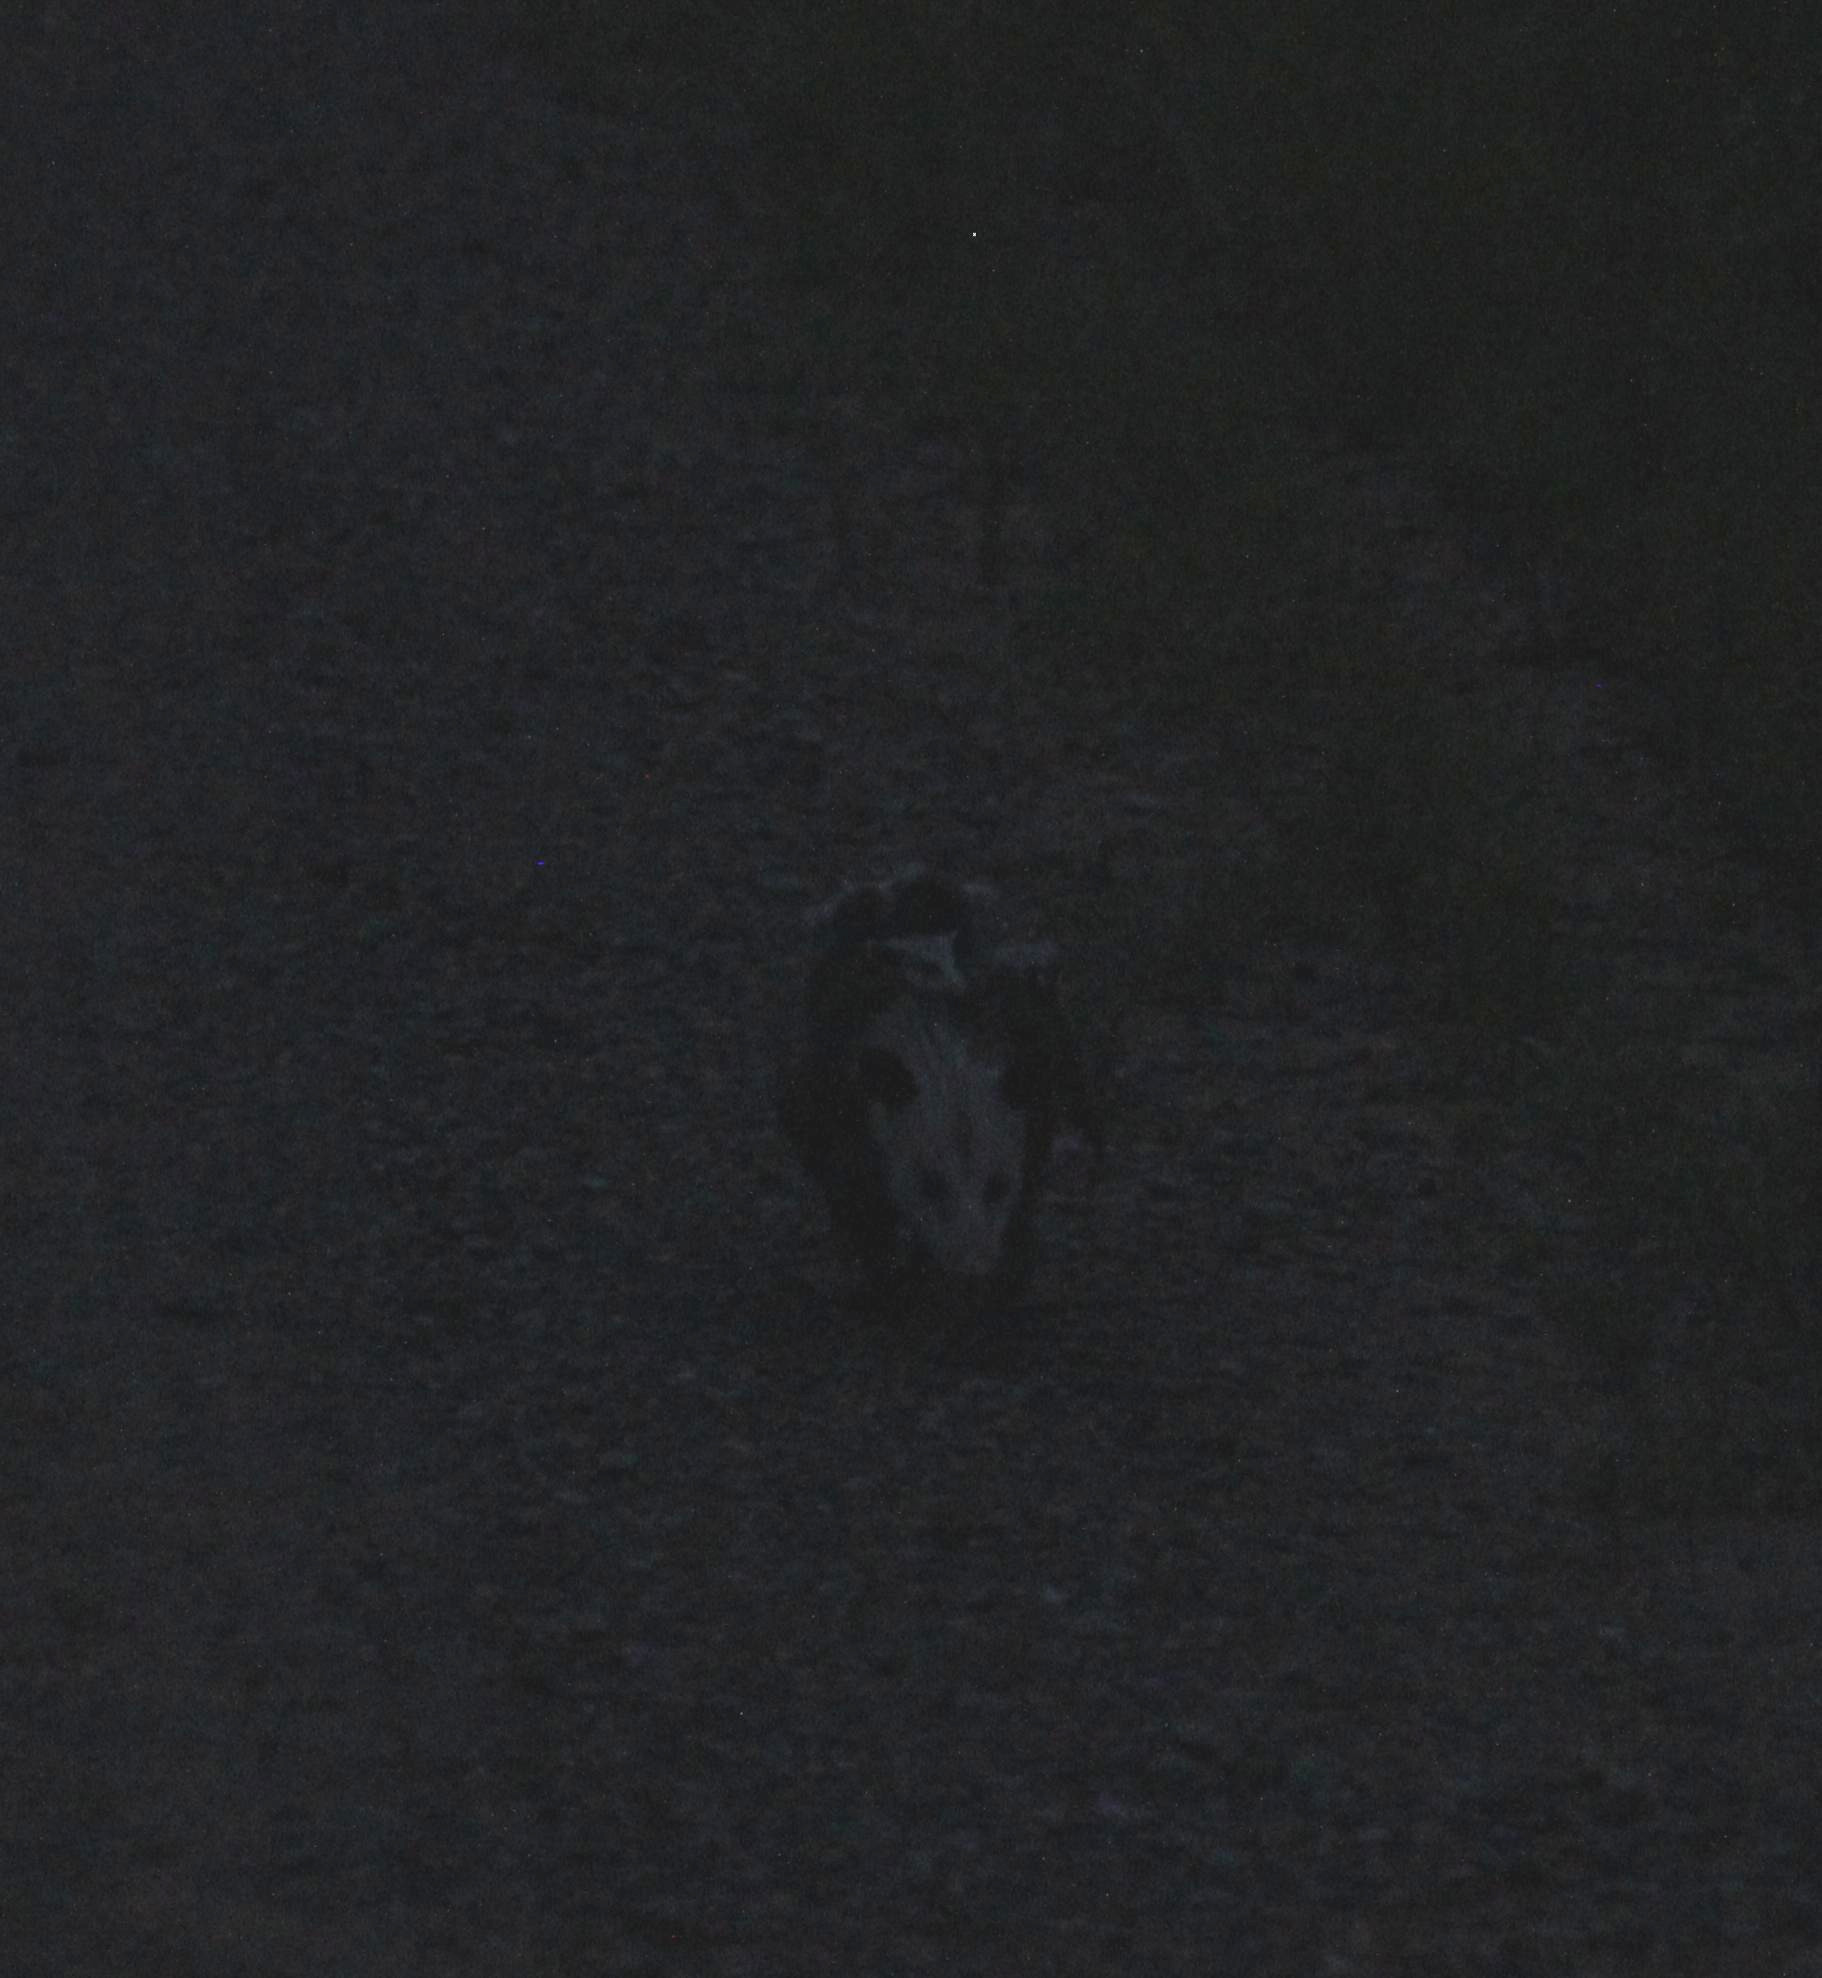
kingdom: Animalia
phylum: Chordata
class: Mammalia
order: Didelphimorphia
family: Didelphidae
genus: Didelphis
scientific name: Didelphis virginiana
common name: Virginia opossum
